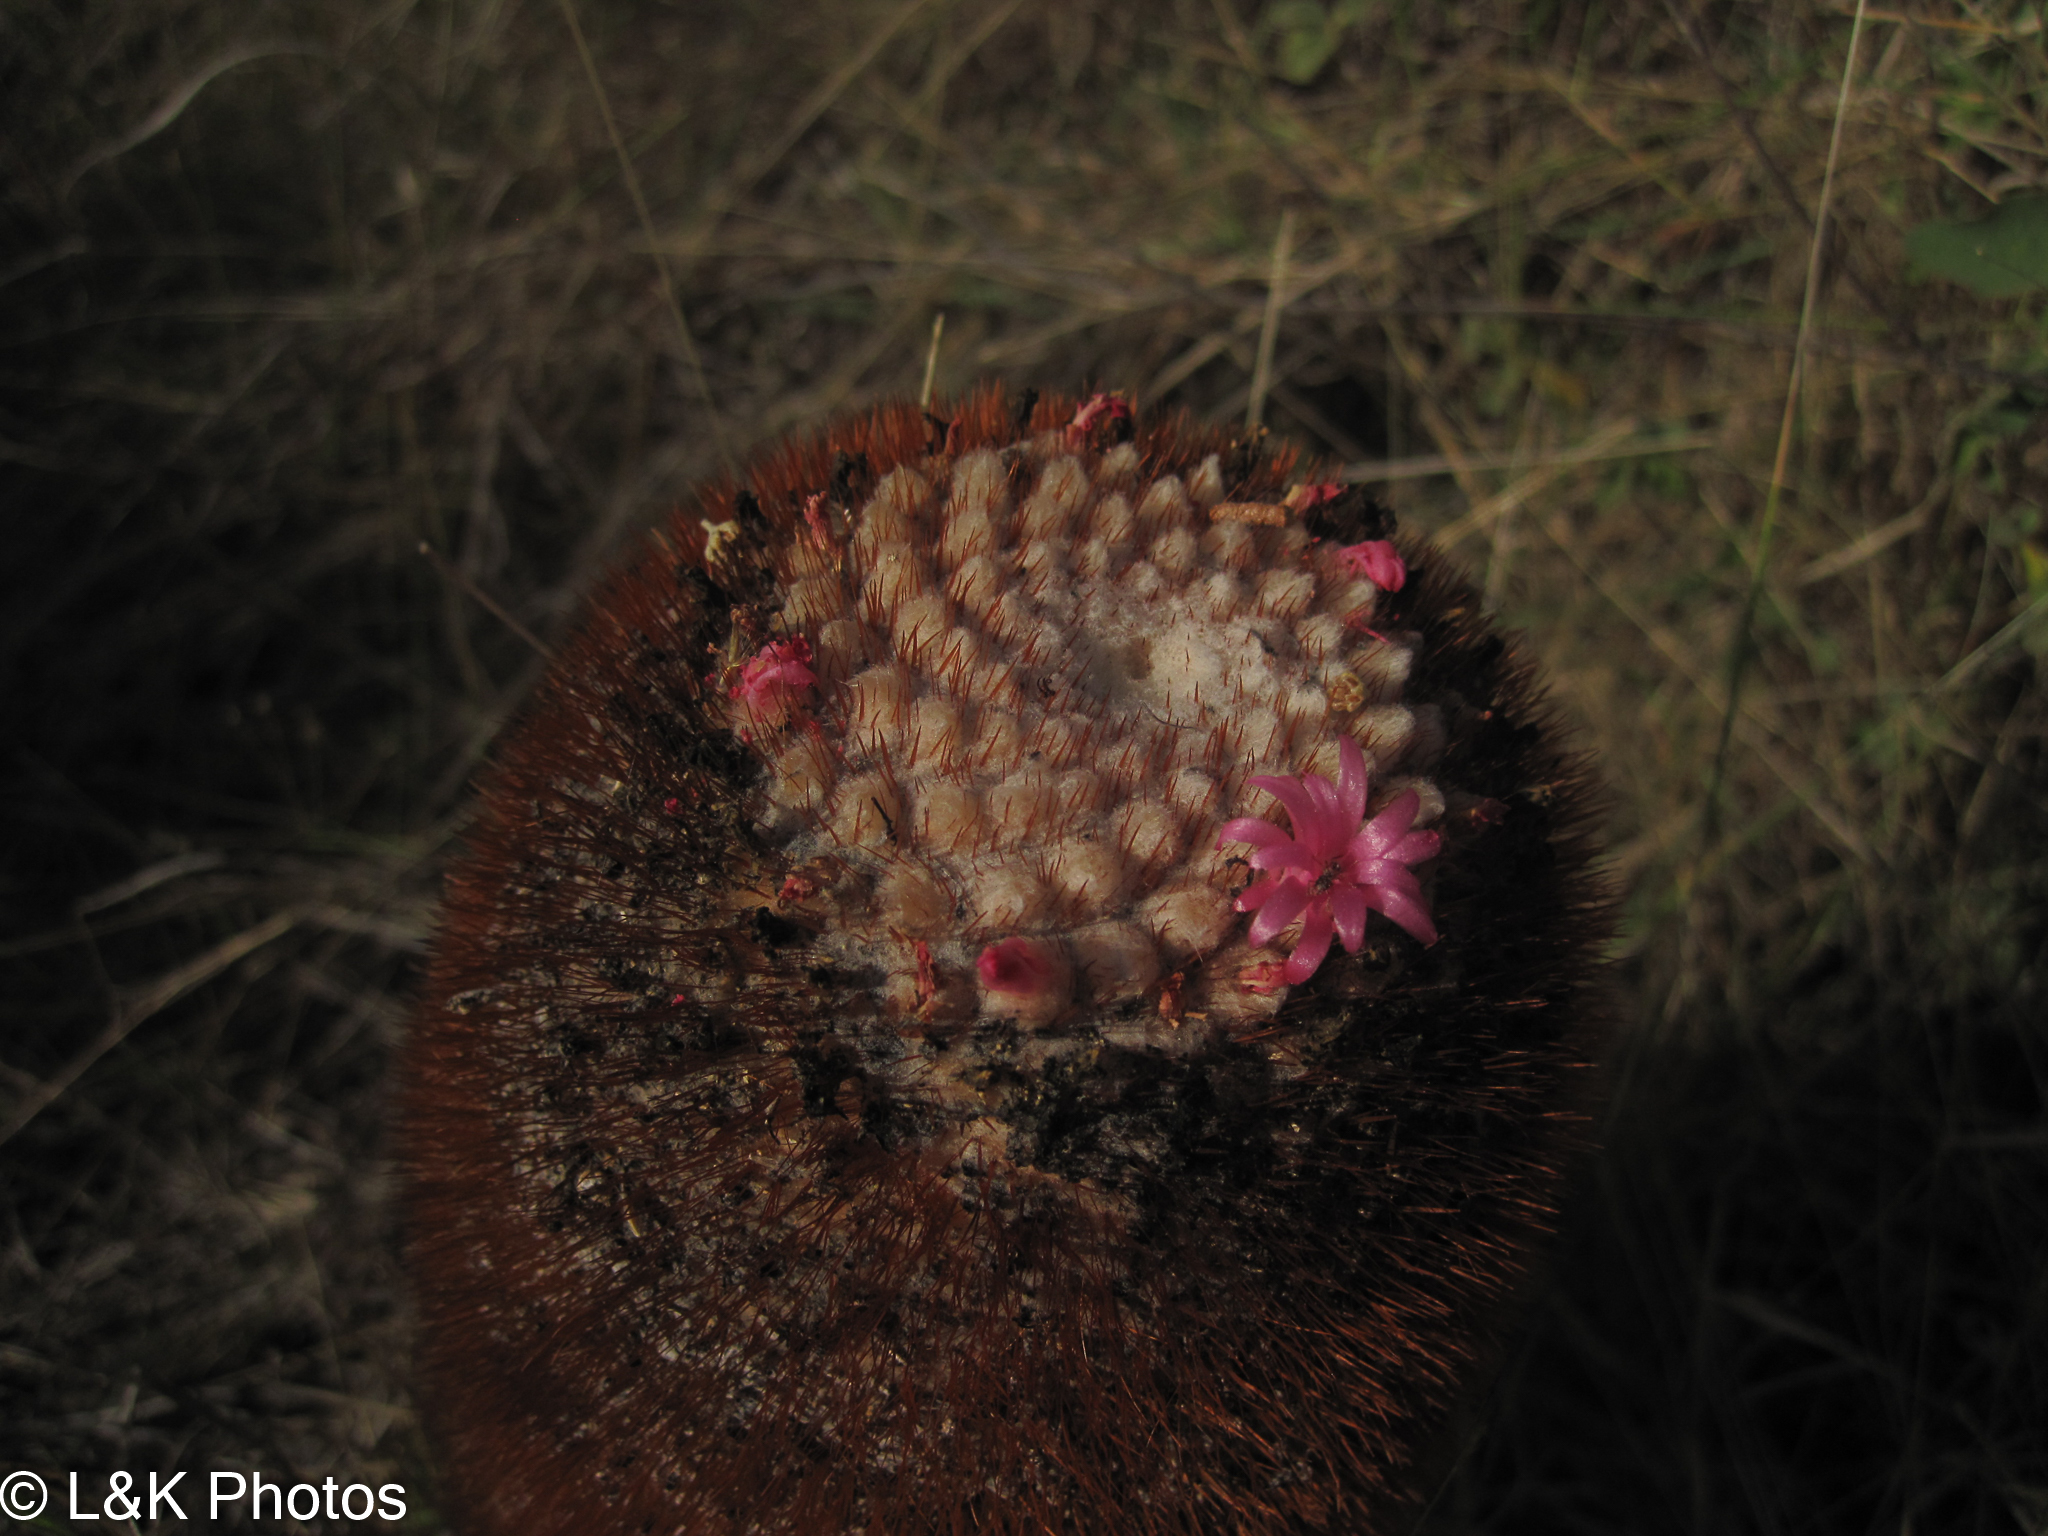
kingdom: Plantae
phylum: Tracheophyta
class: Magnoliopsida
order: Caryophyllales
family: Cactaceae
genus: Melocactus
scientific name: Melocactus intortus
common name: Barrel cactus
